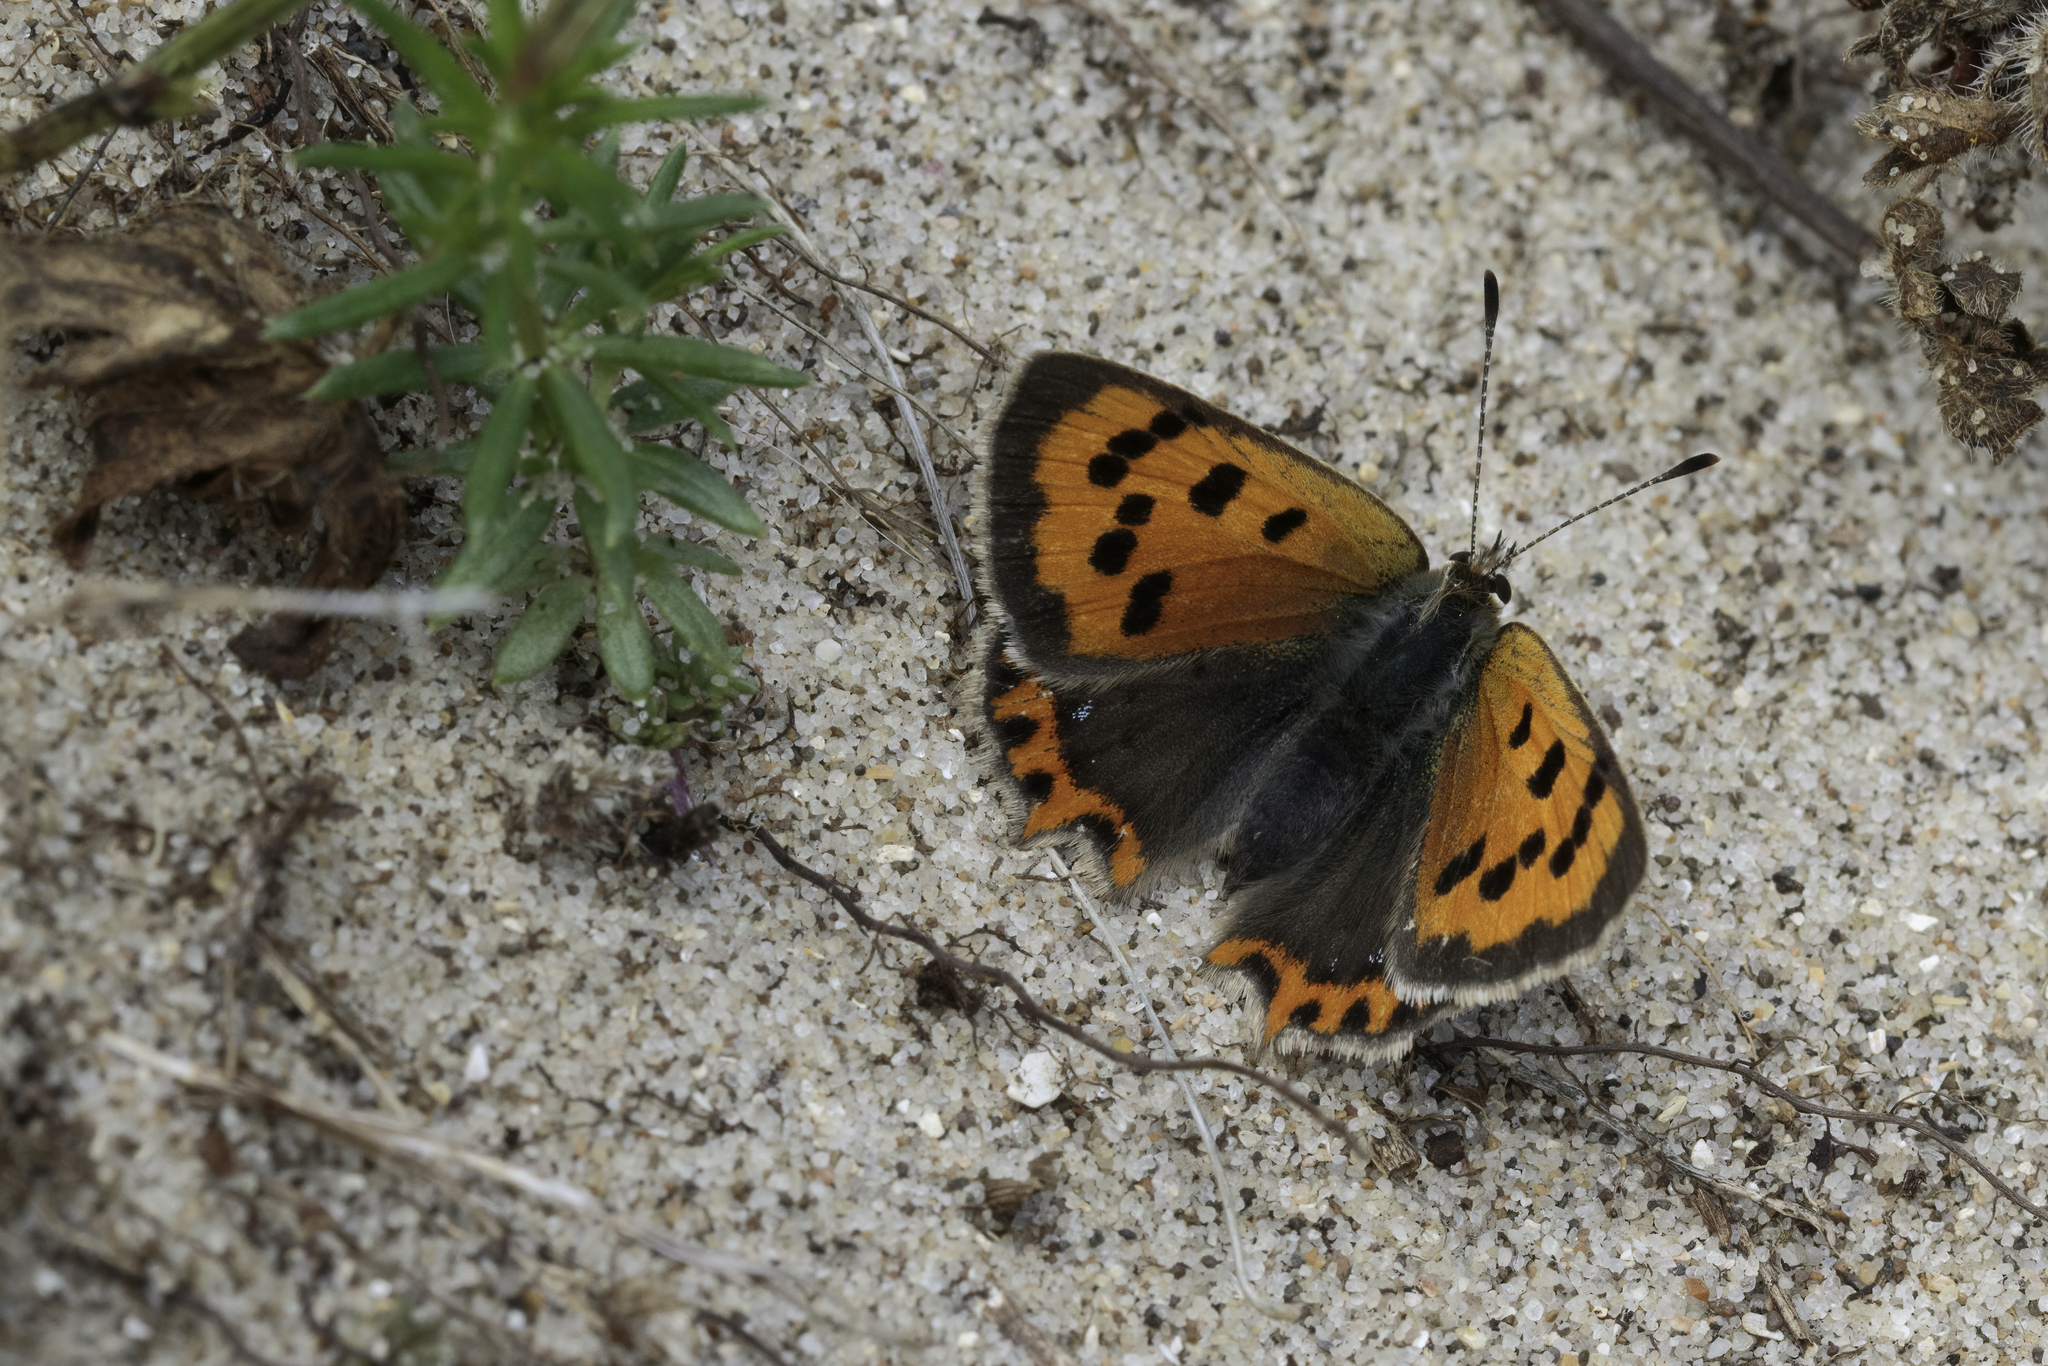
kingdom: Animalia
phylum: Arthropoda
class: Insecta
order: Lepidoptera
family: Lycaenidae
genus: Lycaena
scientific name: Lycaena phlaeas
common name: Small copper
